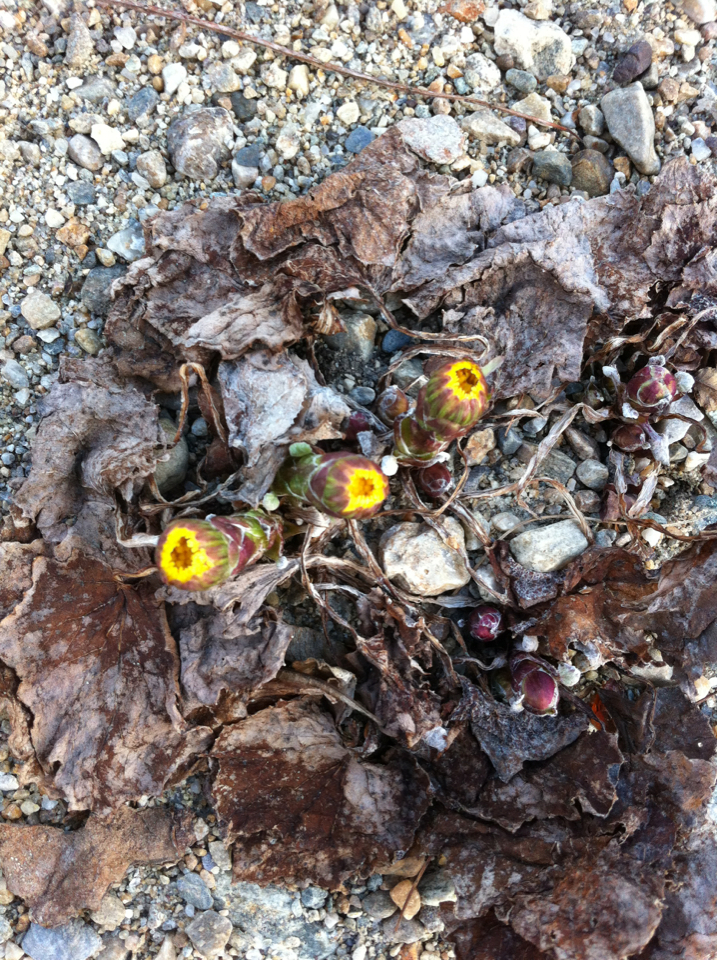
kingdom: Plantae
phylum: Tracheophyta
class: Magnoliopsida
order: Asterales
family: Asteraceae
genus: Tussilago
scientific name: Tussilago farfara
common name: Coltsfoot
